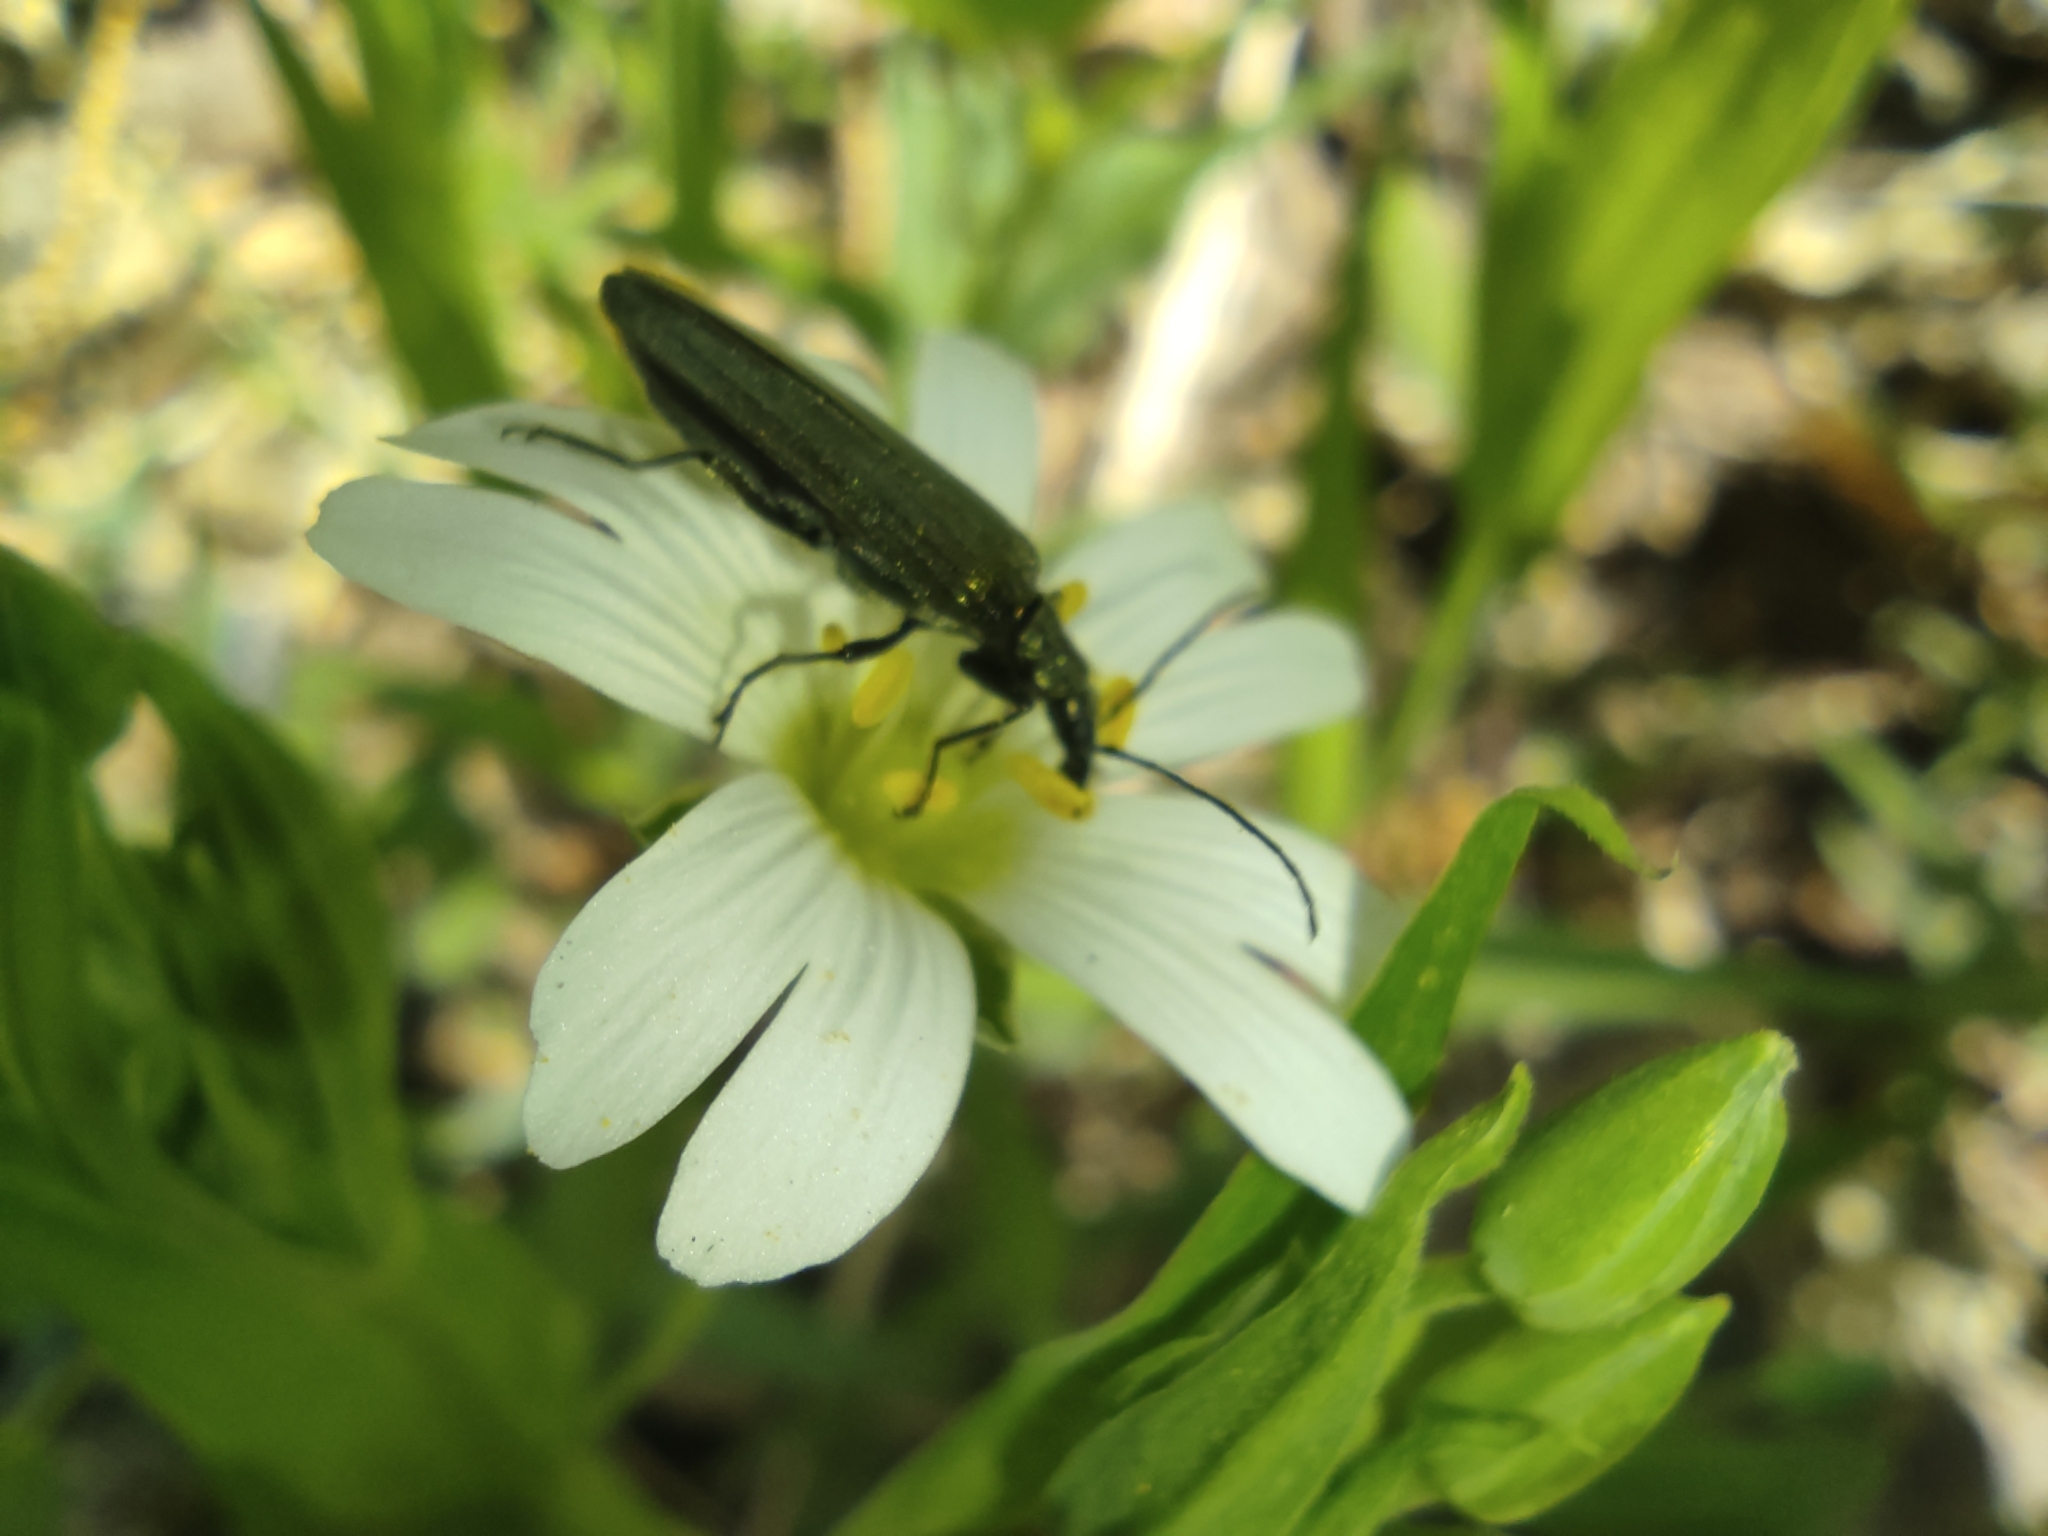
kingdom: Plantae
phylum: Tracheophyta
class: Magnoliopsida
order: Caryophyllales
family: Caryophyllaceae
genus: Rabelera
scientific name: Rabelera holostea
